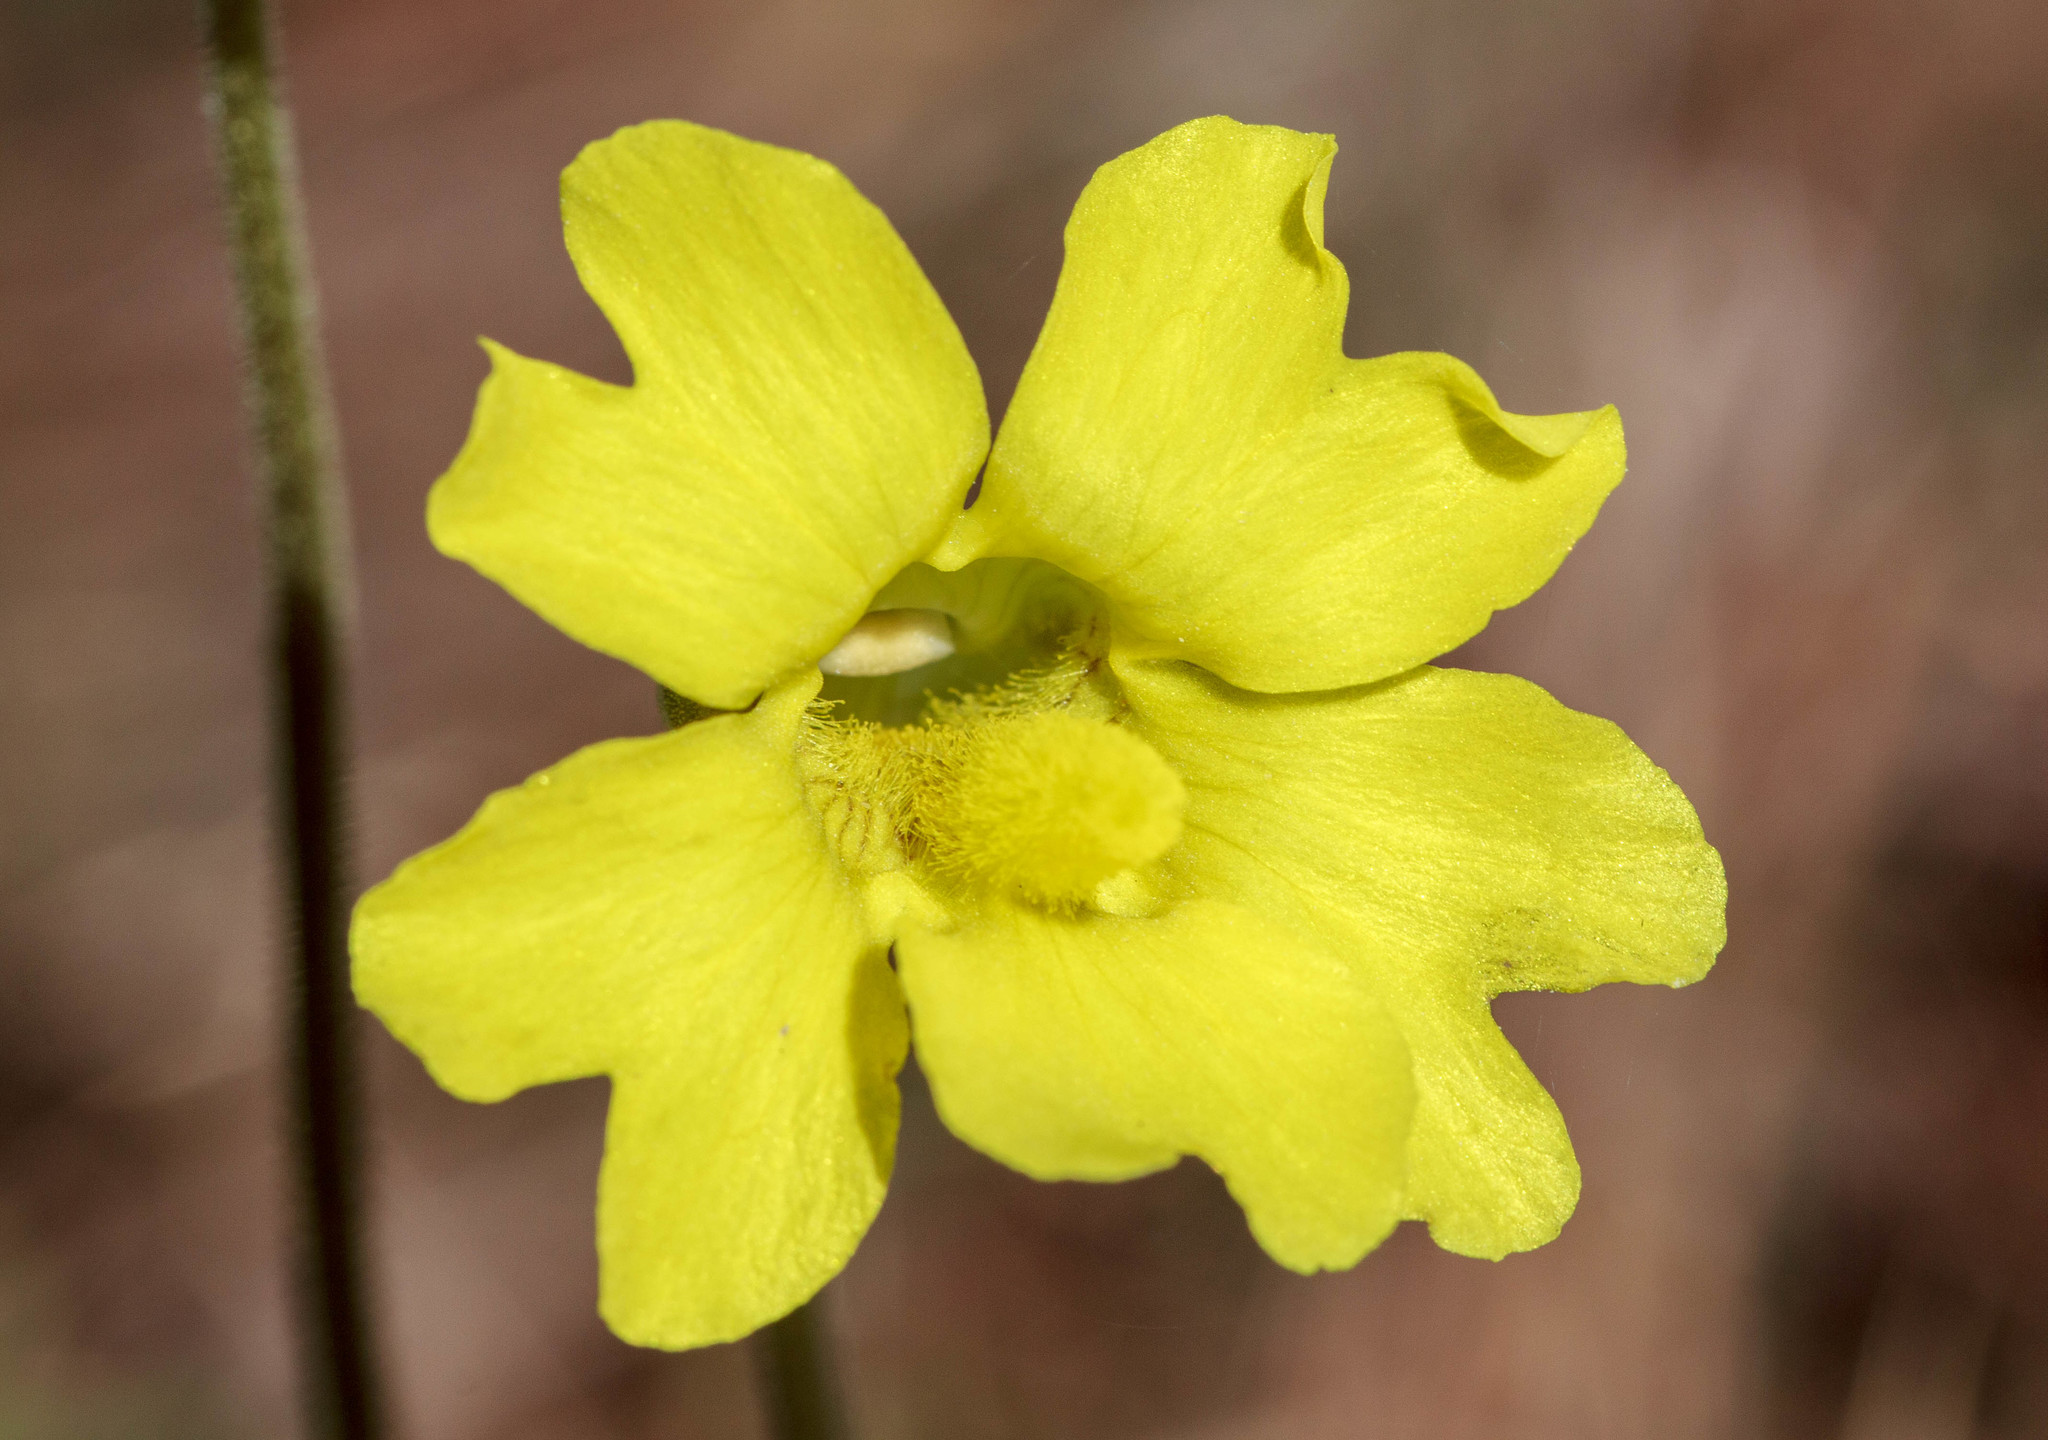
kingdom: Plantae
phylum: Tracheophyta
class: Magnoliopsida
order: Lamiales
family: Lentibulariaceae
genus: Pinguicula
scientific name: Pinguicula lutea
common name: Yellow butterwort
